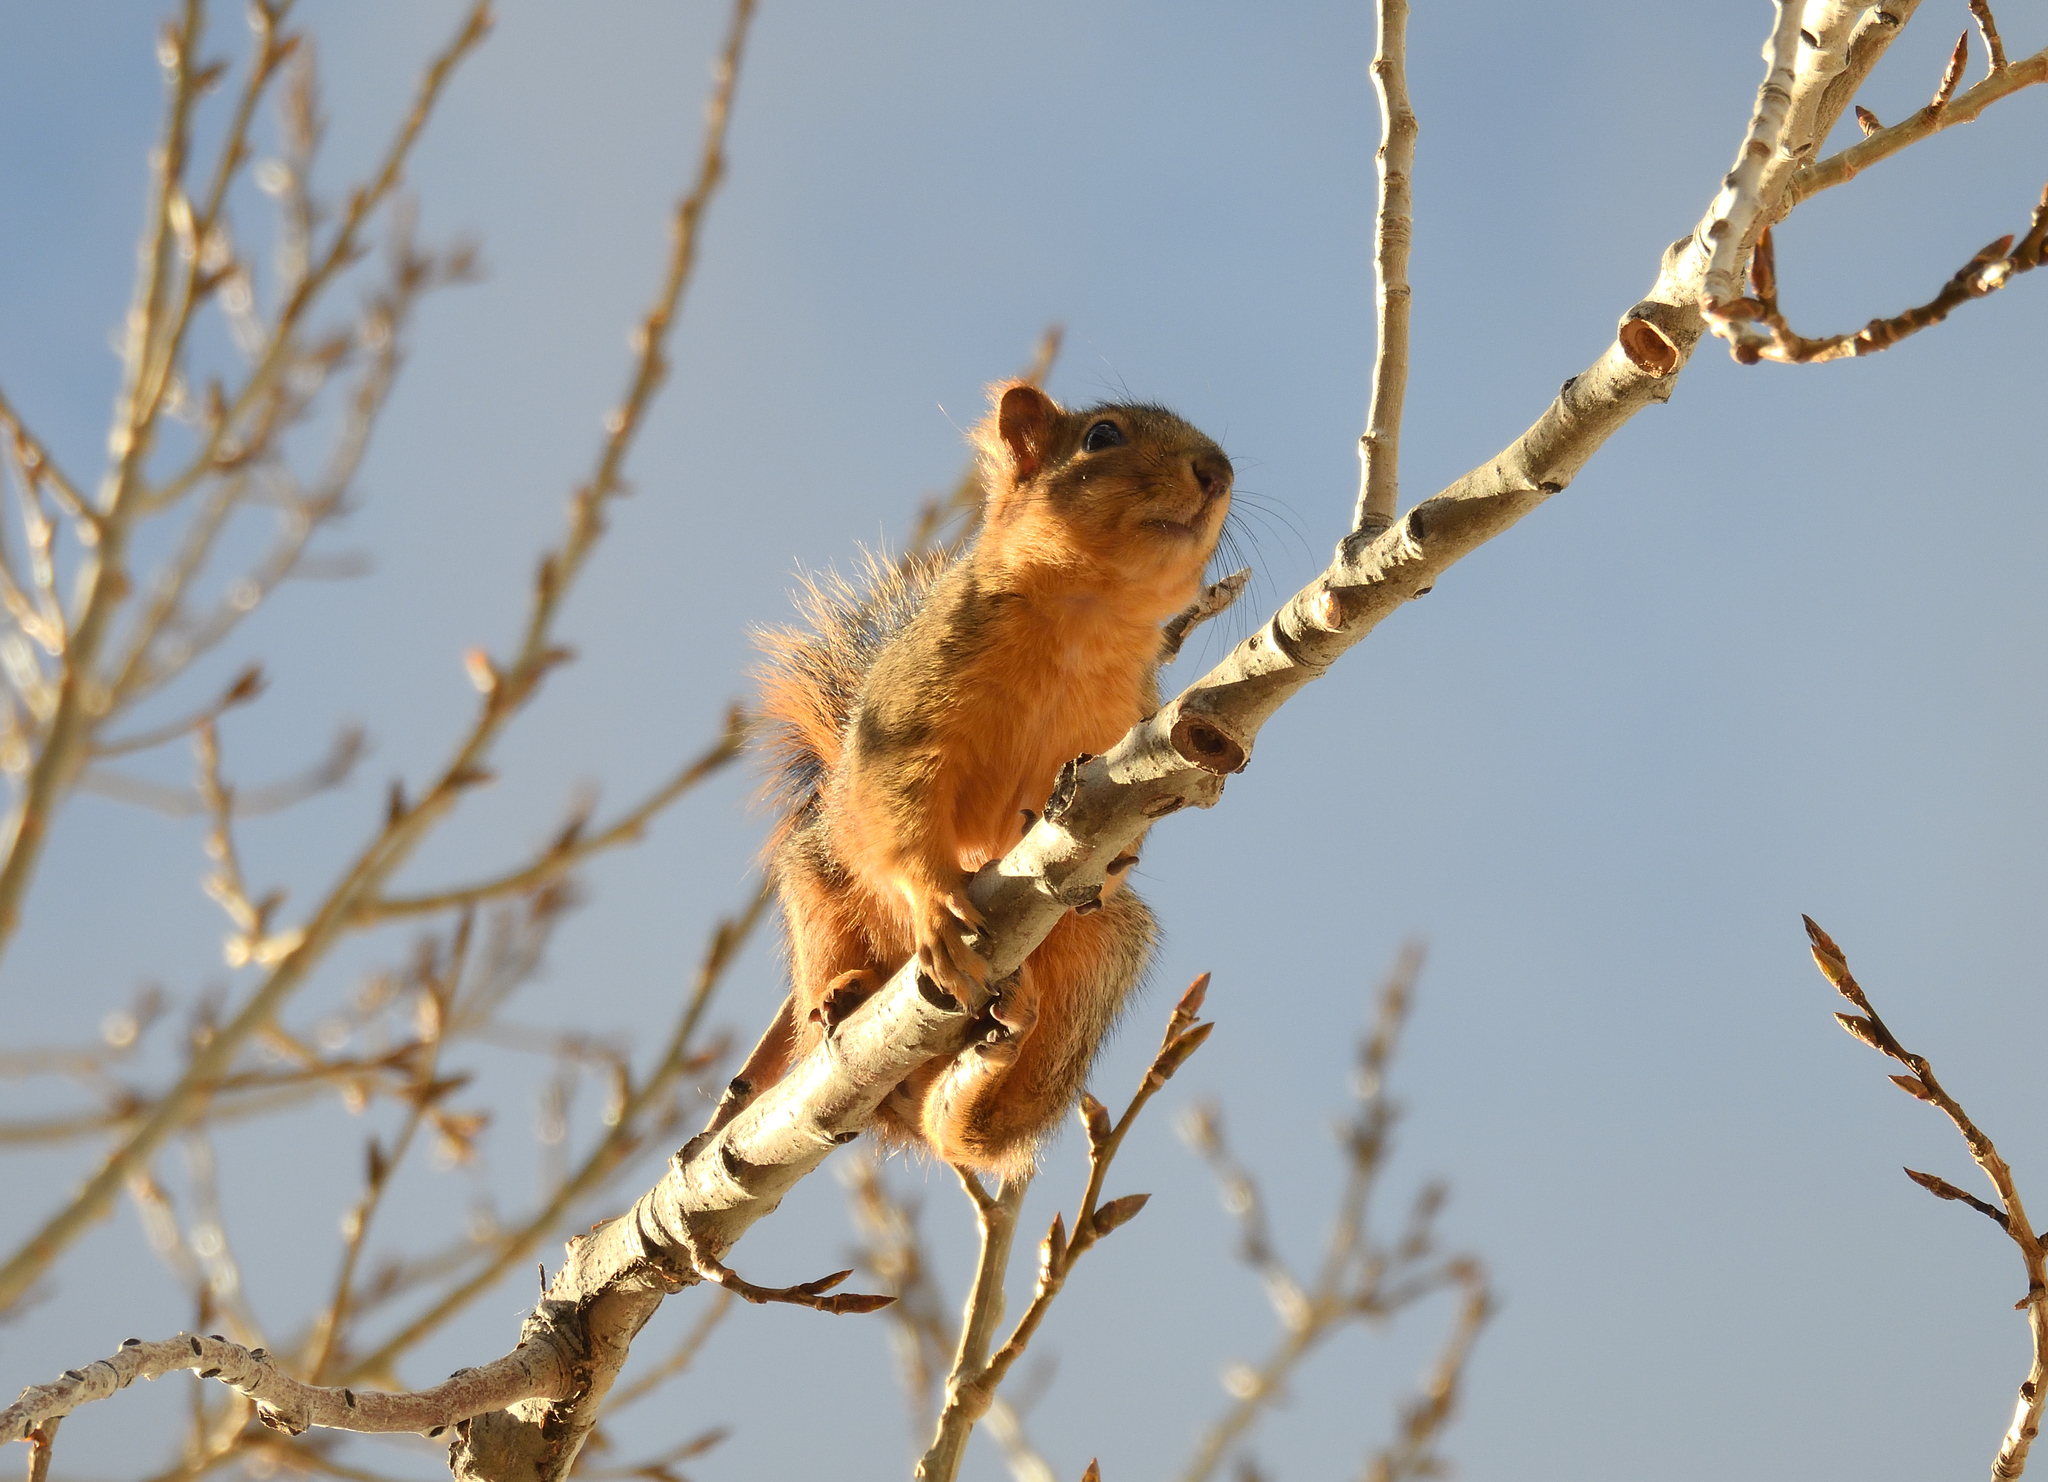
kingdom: Animalia
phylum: Chordata
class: Mammalia
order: Rodentia
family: Sciuridae
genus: Sciurus
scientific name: Sciurus niger
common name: Fox squirrel
